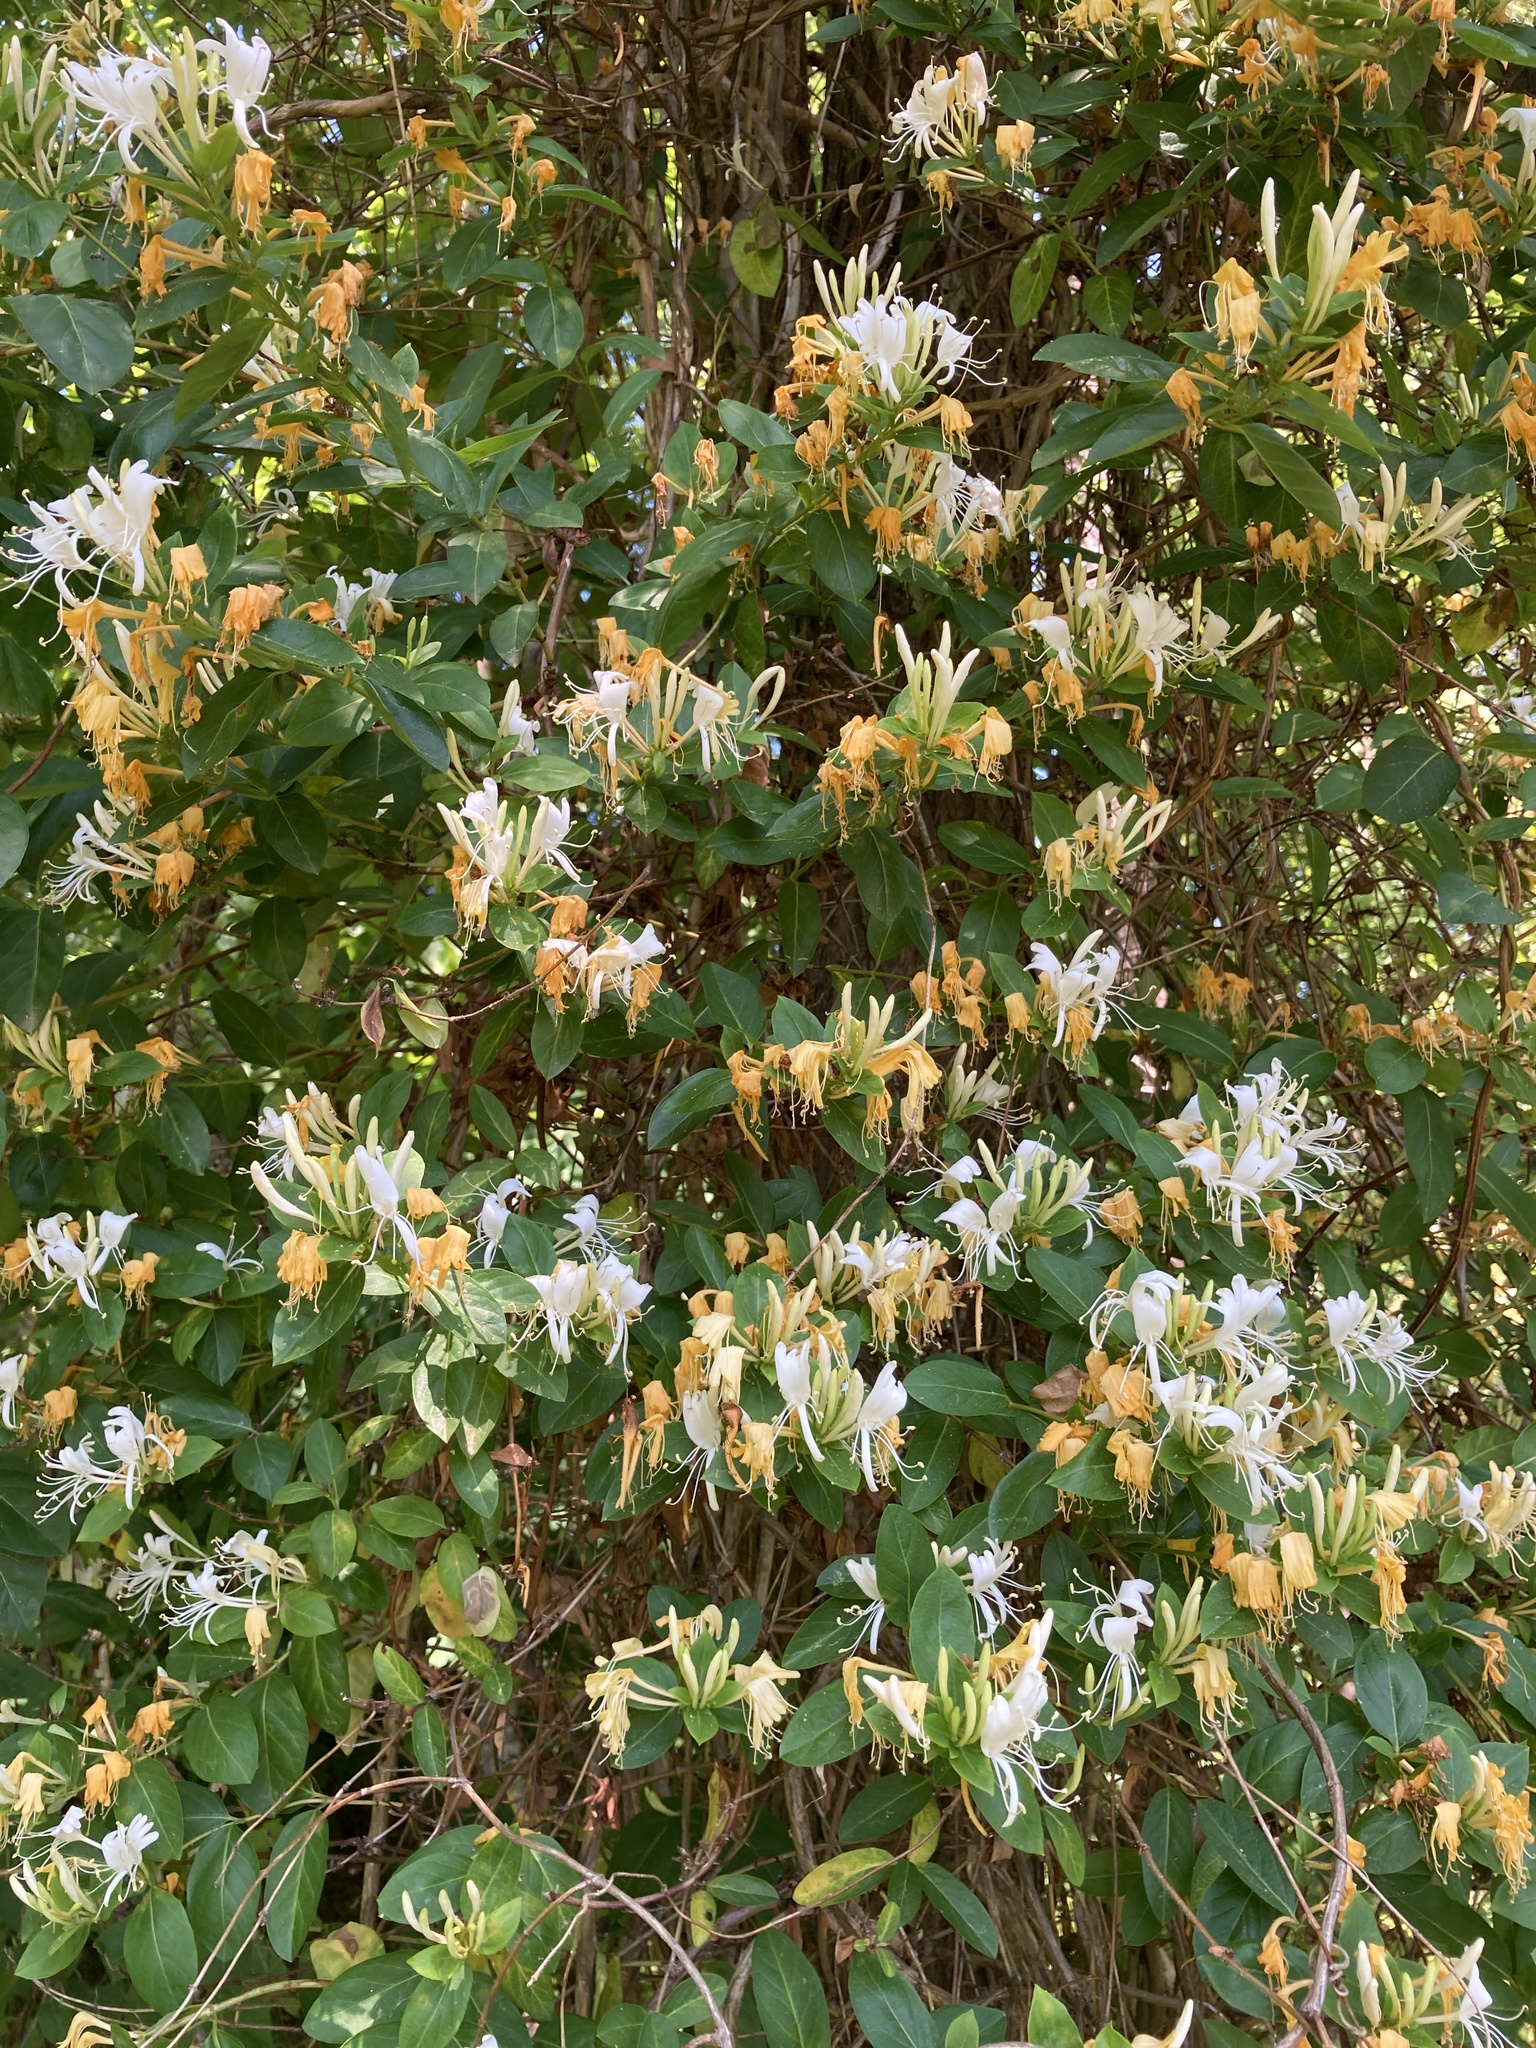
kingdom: Plantae
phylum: Tracheophyta
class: Magnoliopsida
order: Dipsacales
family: Caprifoliaceae
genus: Lonicera
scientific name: Lonicera japonica
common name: Japanese honeysuckle
